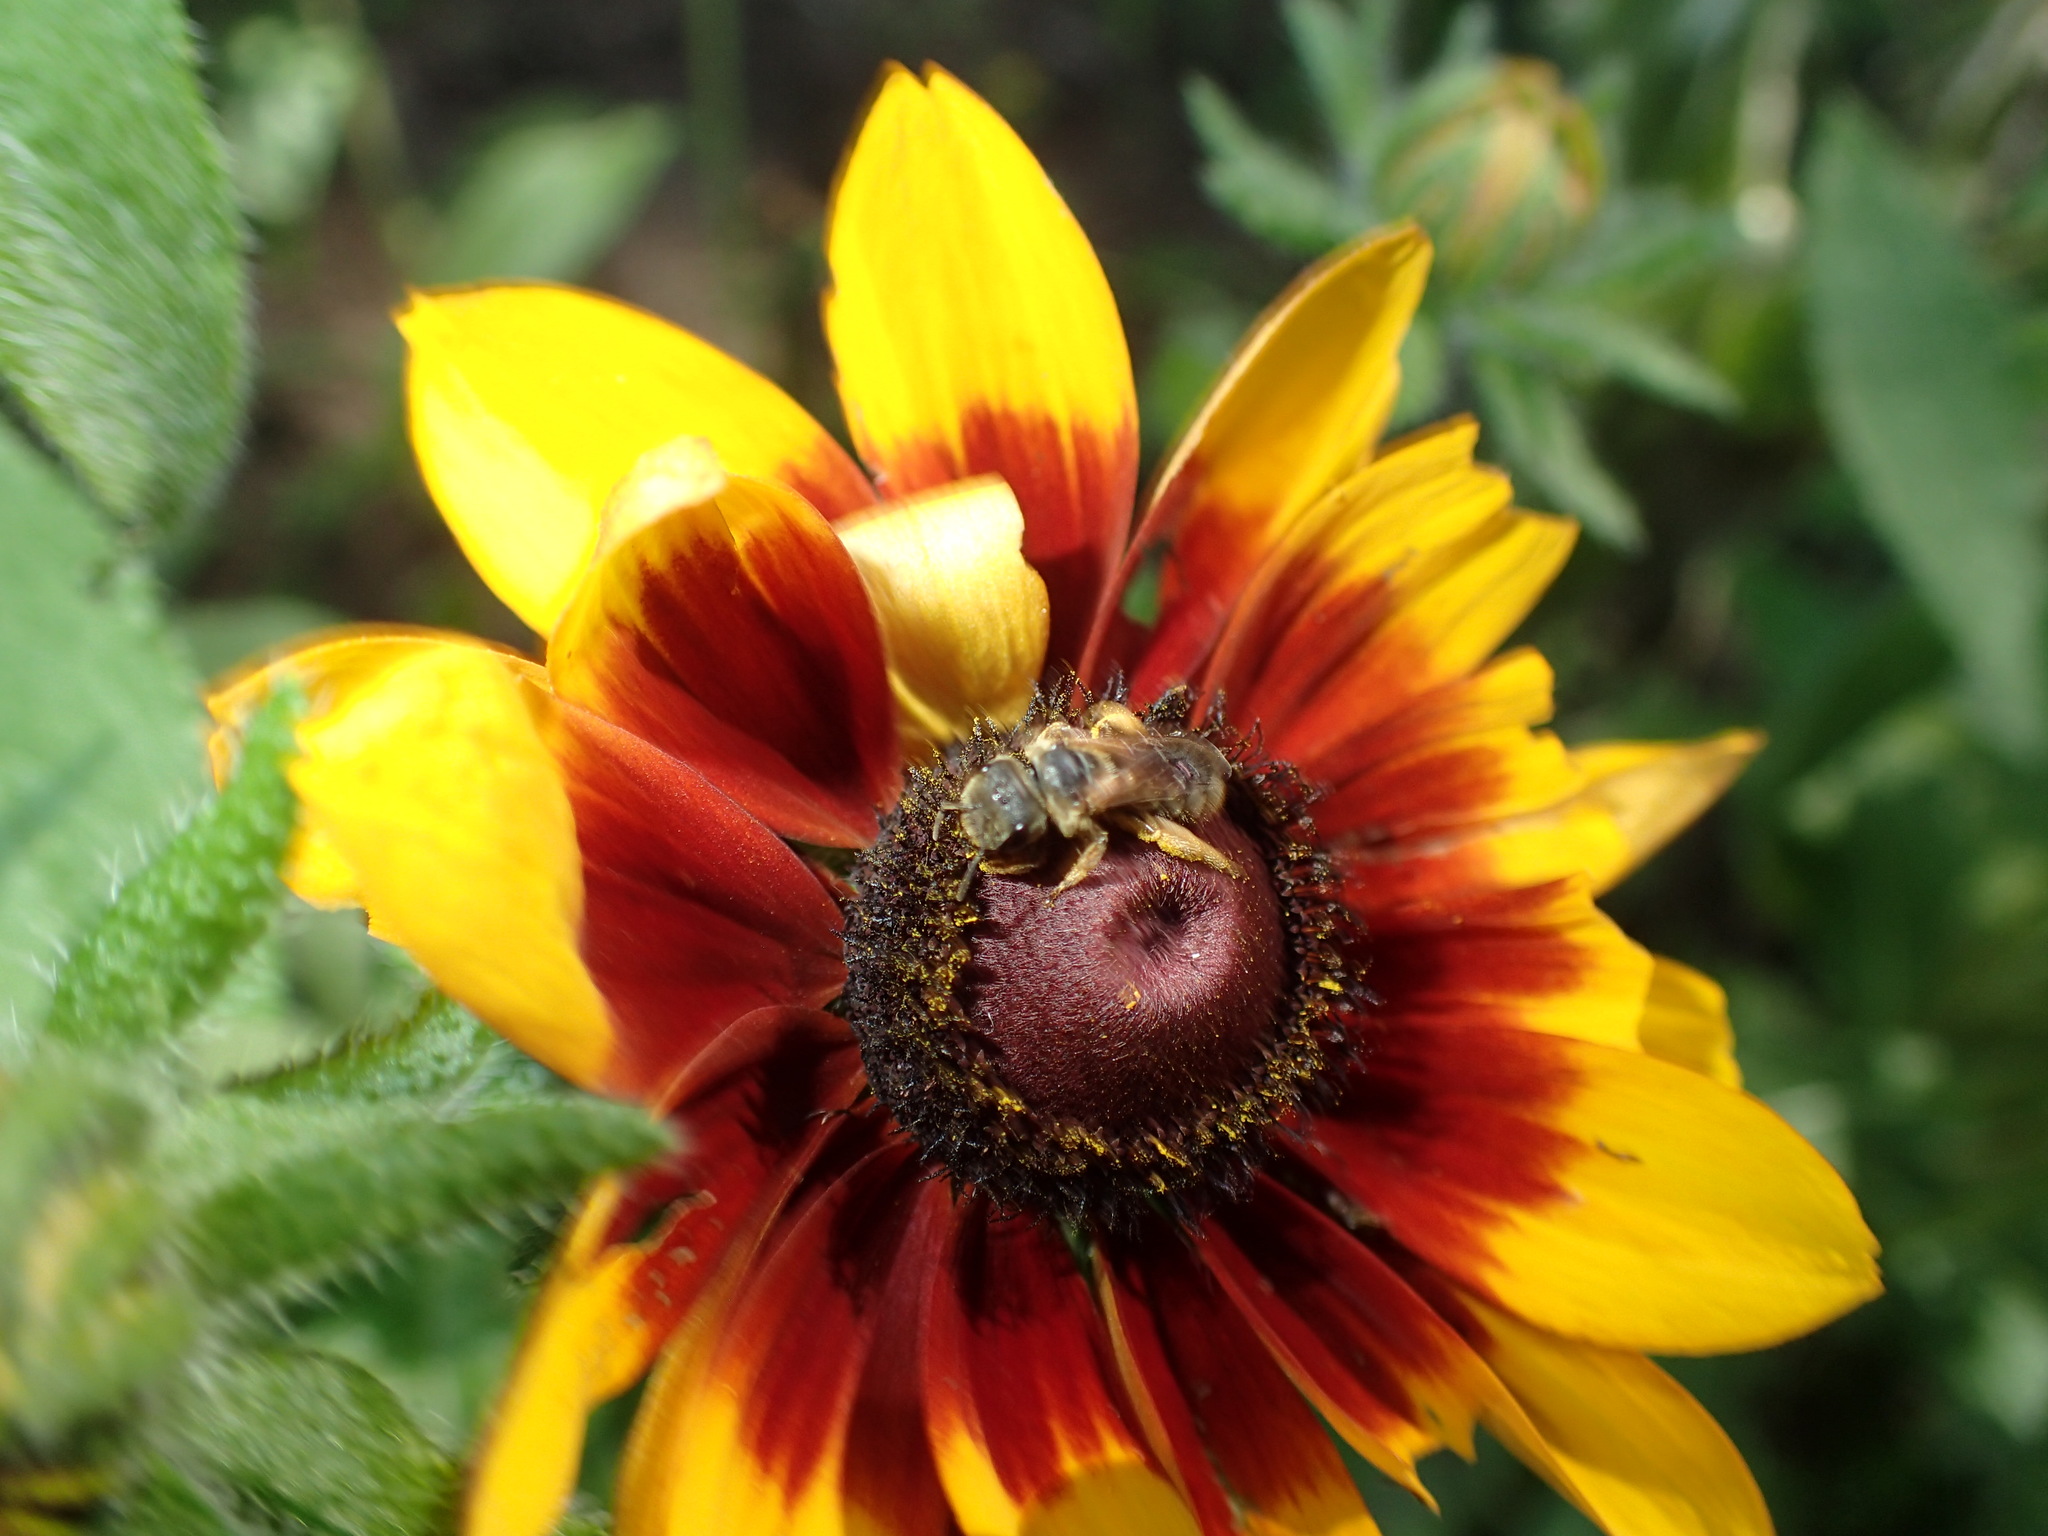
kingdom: Animalia
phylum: Arthropoda
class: Insecta
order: Hymenoptera
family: Halictidae
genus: Halictus
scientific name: Halictus poeyi
